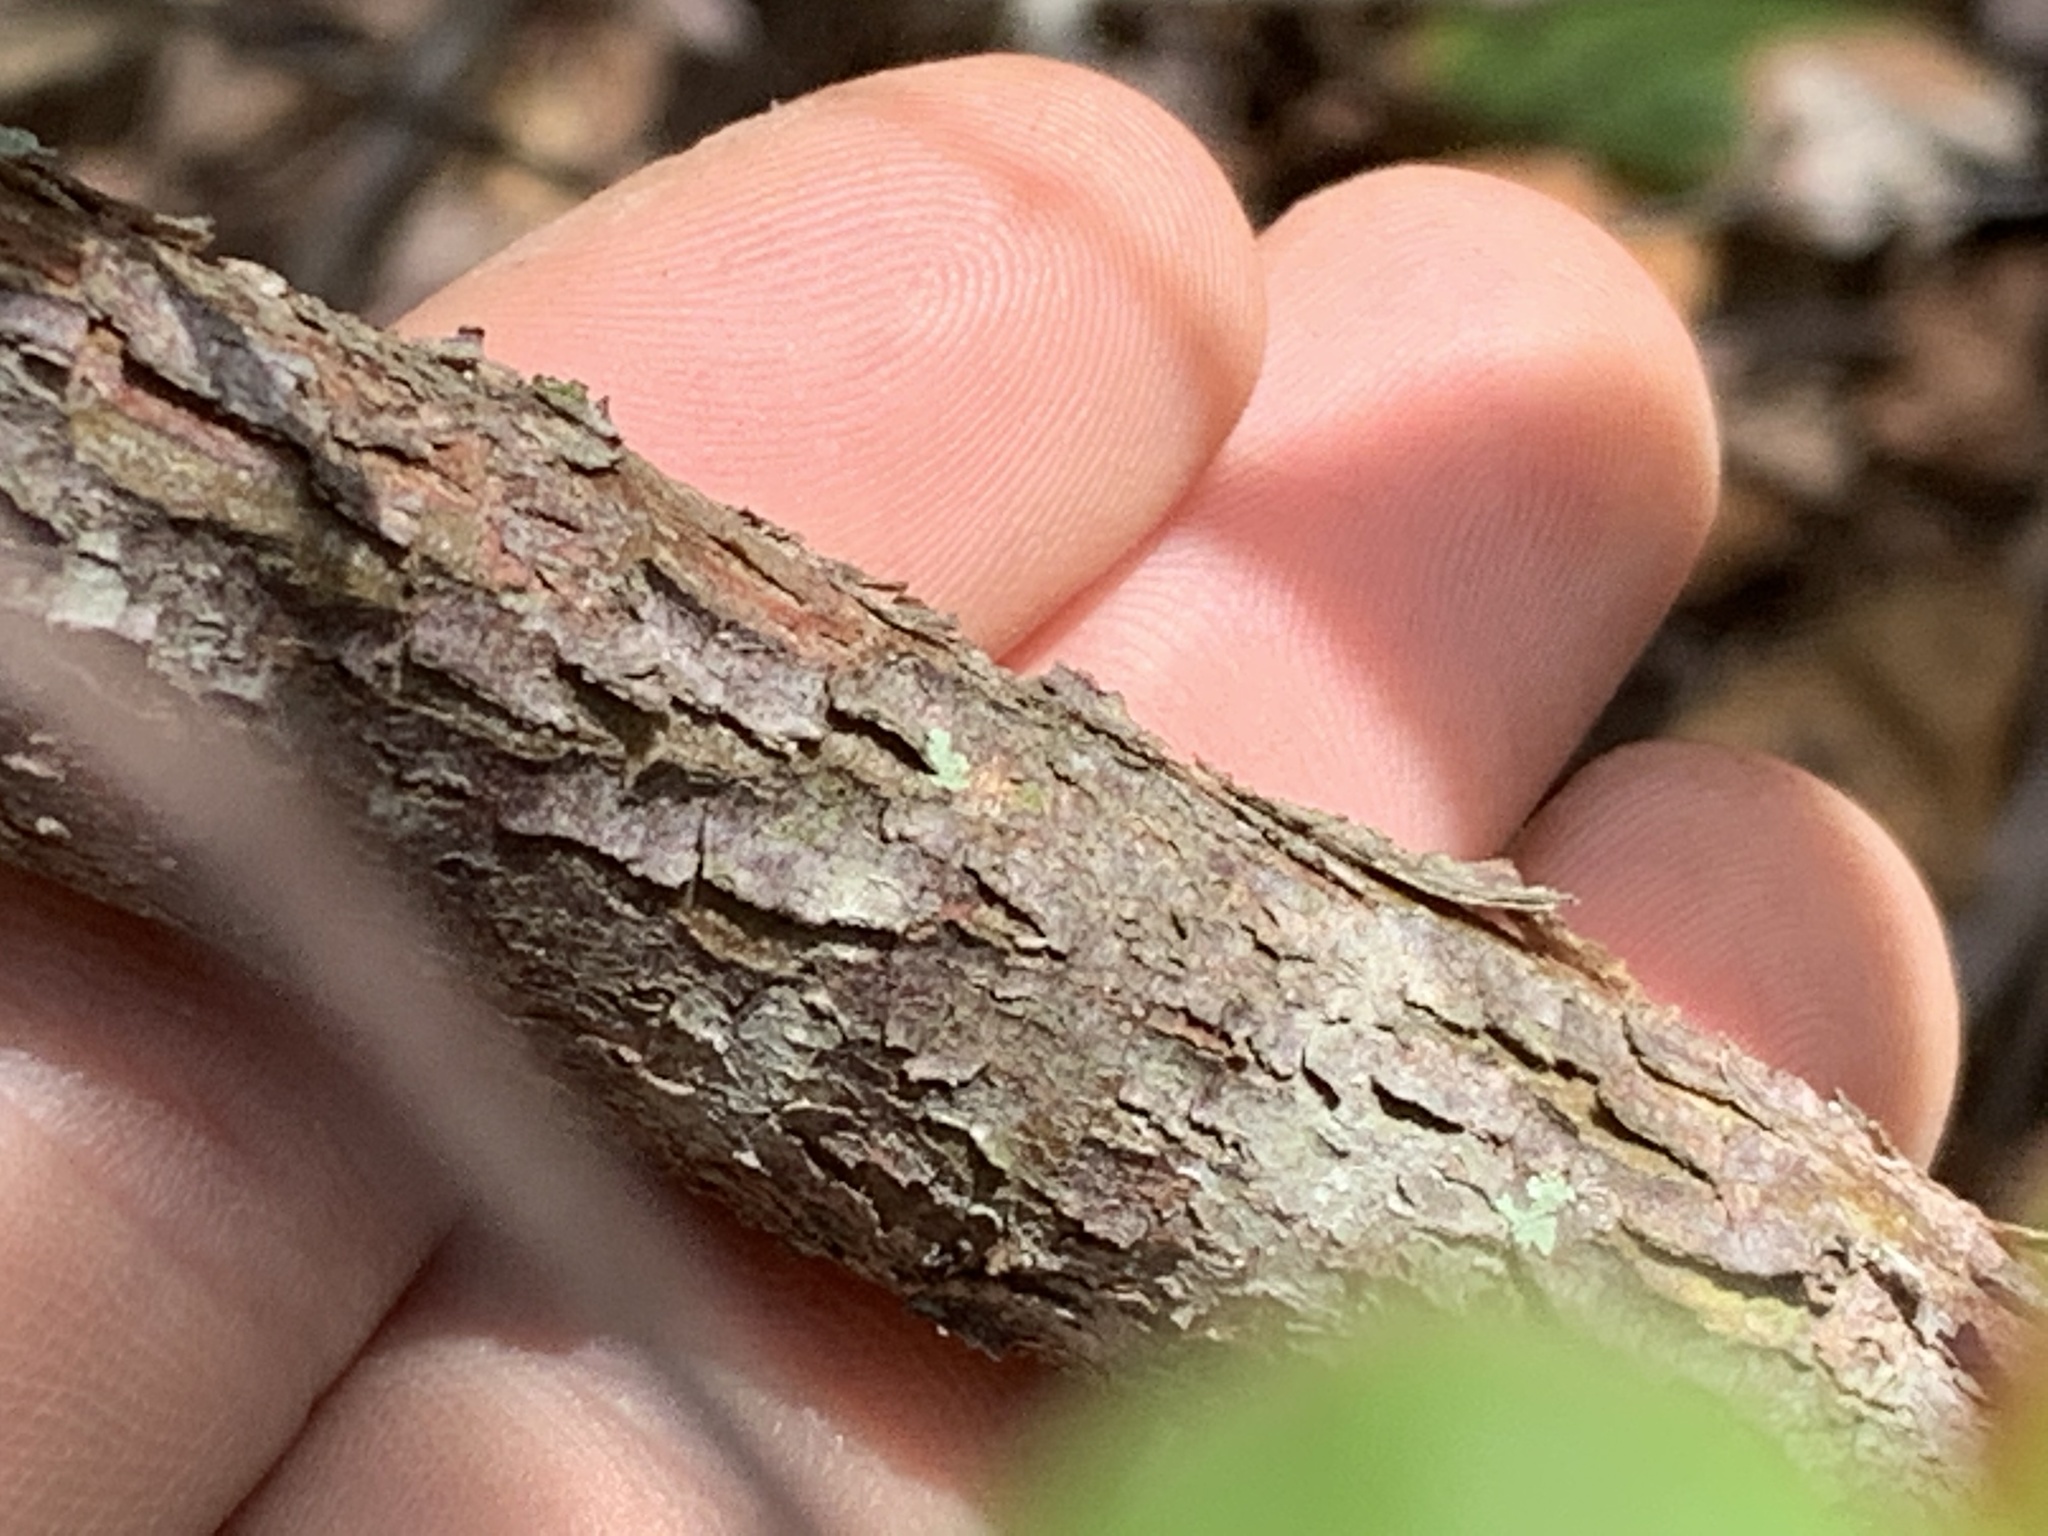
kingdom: Plantae
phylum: Tracheophyta
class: Magnoliopsida
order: Ericales
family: Ericaceae
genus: Vaccinium
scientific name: Vaccinium arboreum
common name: Farkleberry
